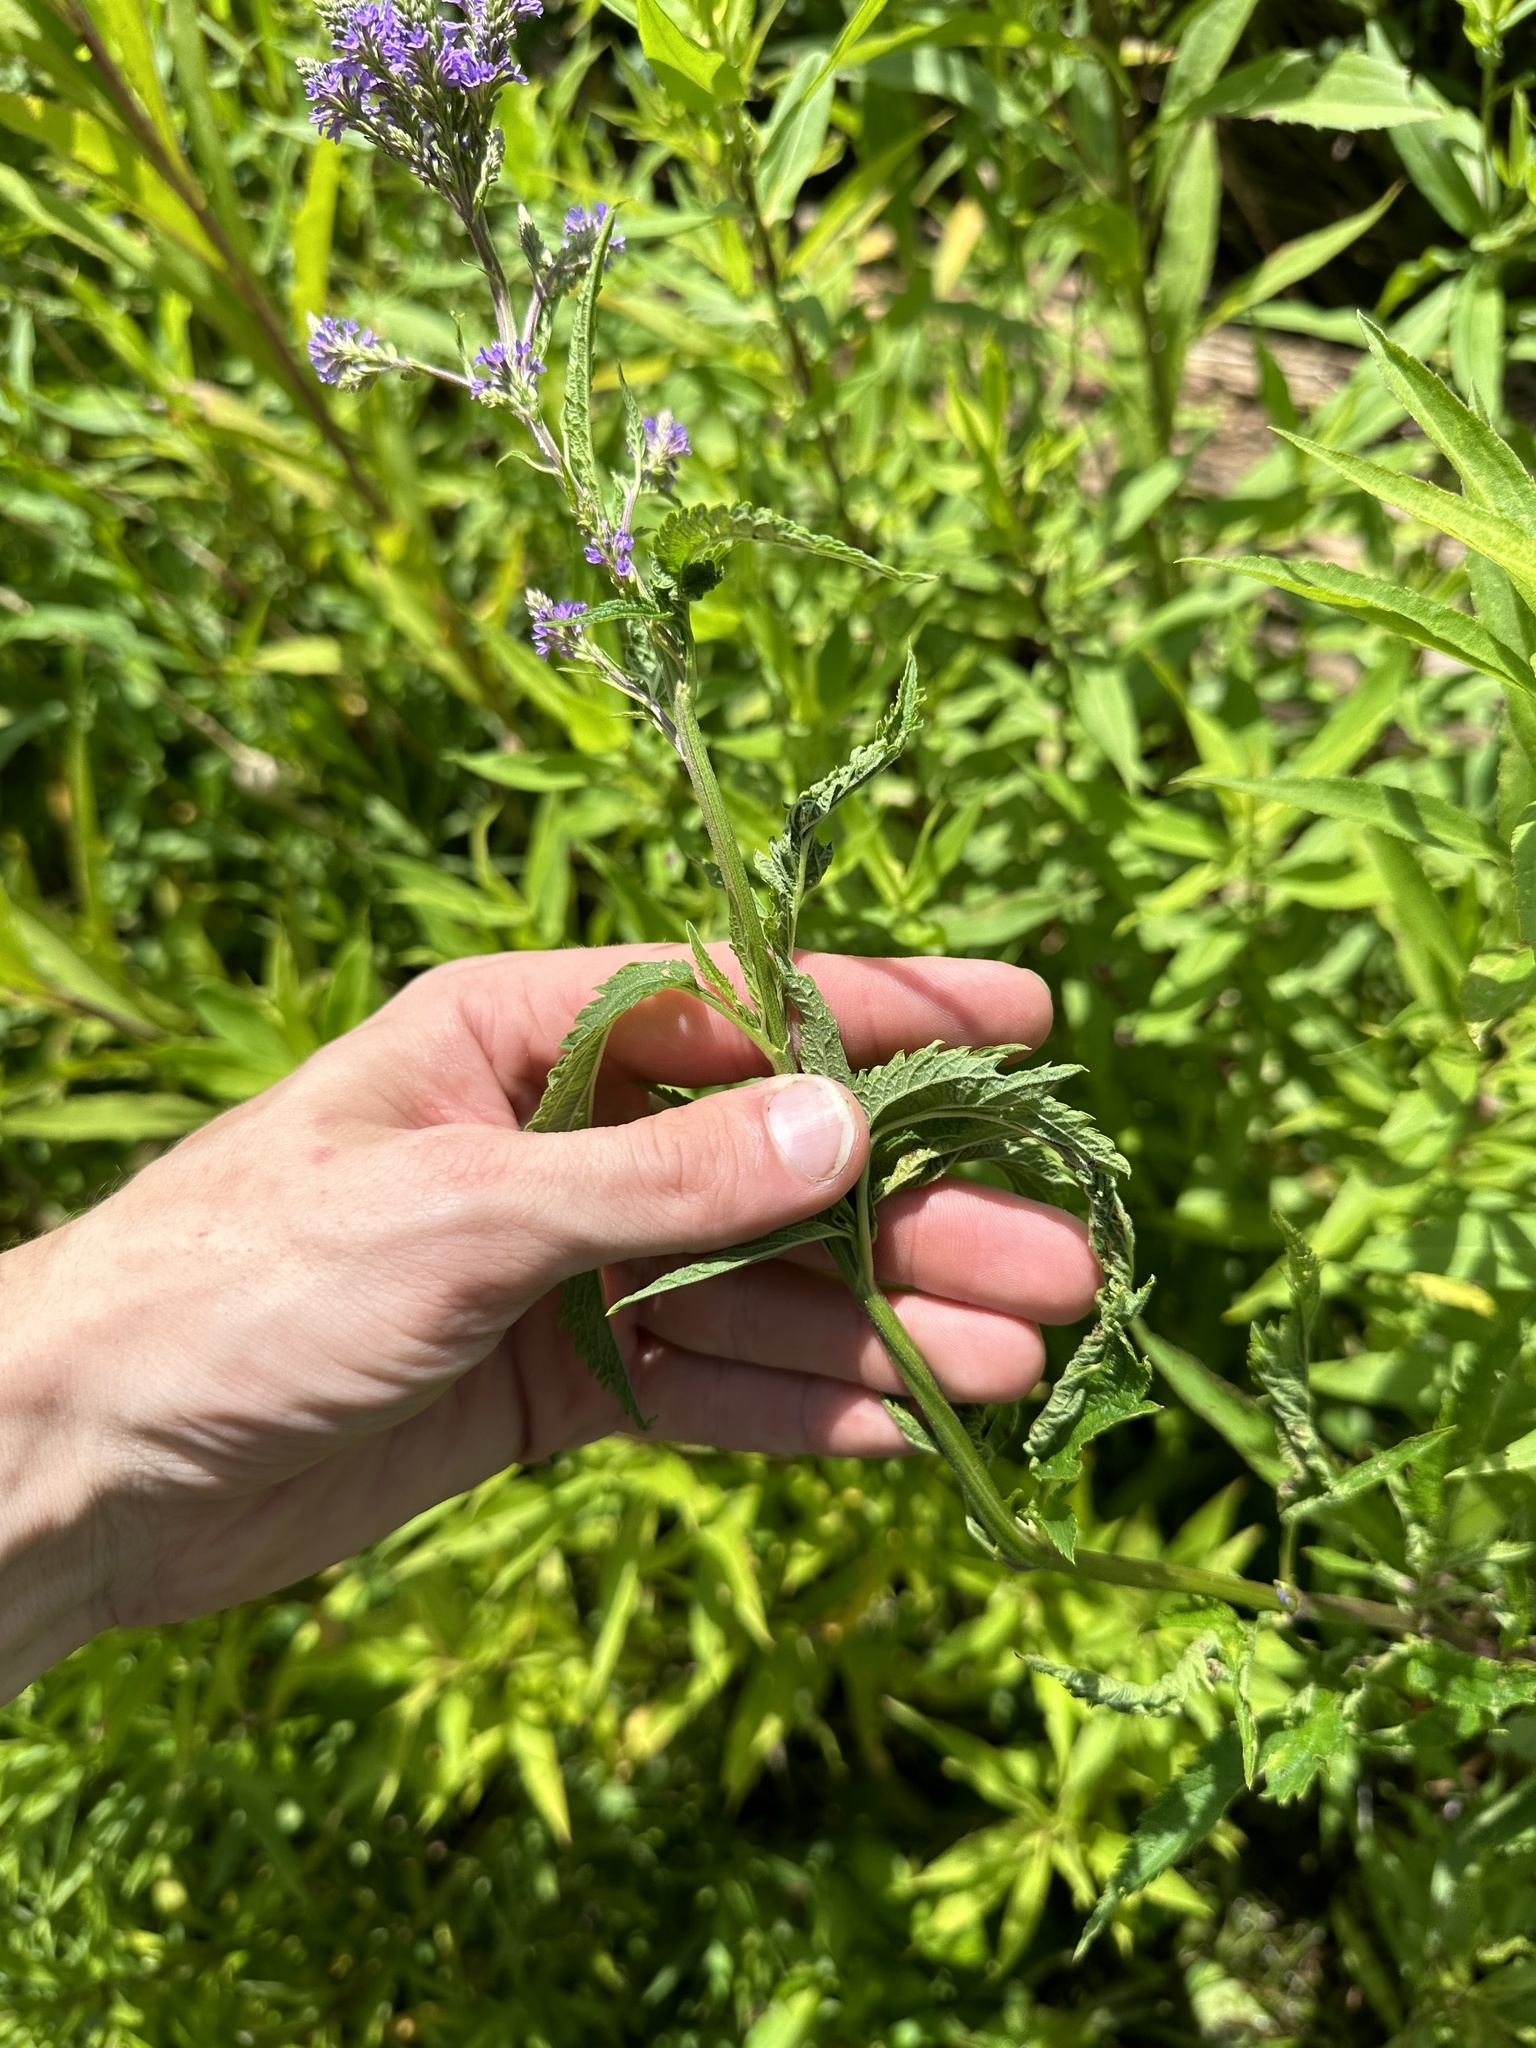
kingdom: Plantae
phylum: Tracheophyta
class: Magnoliopsida
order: Lamiales
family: Verbenaceae
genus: Verbena
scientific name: Verbena hastata
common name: American blue vervain
